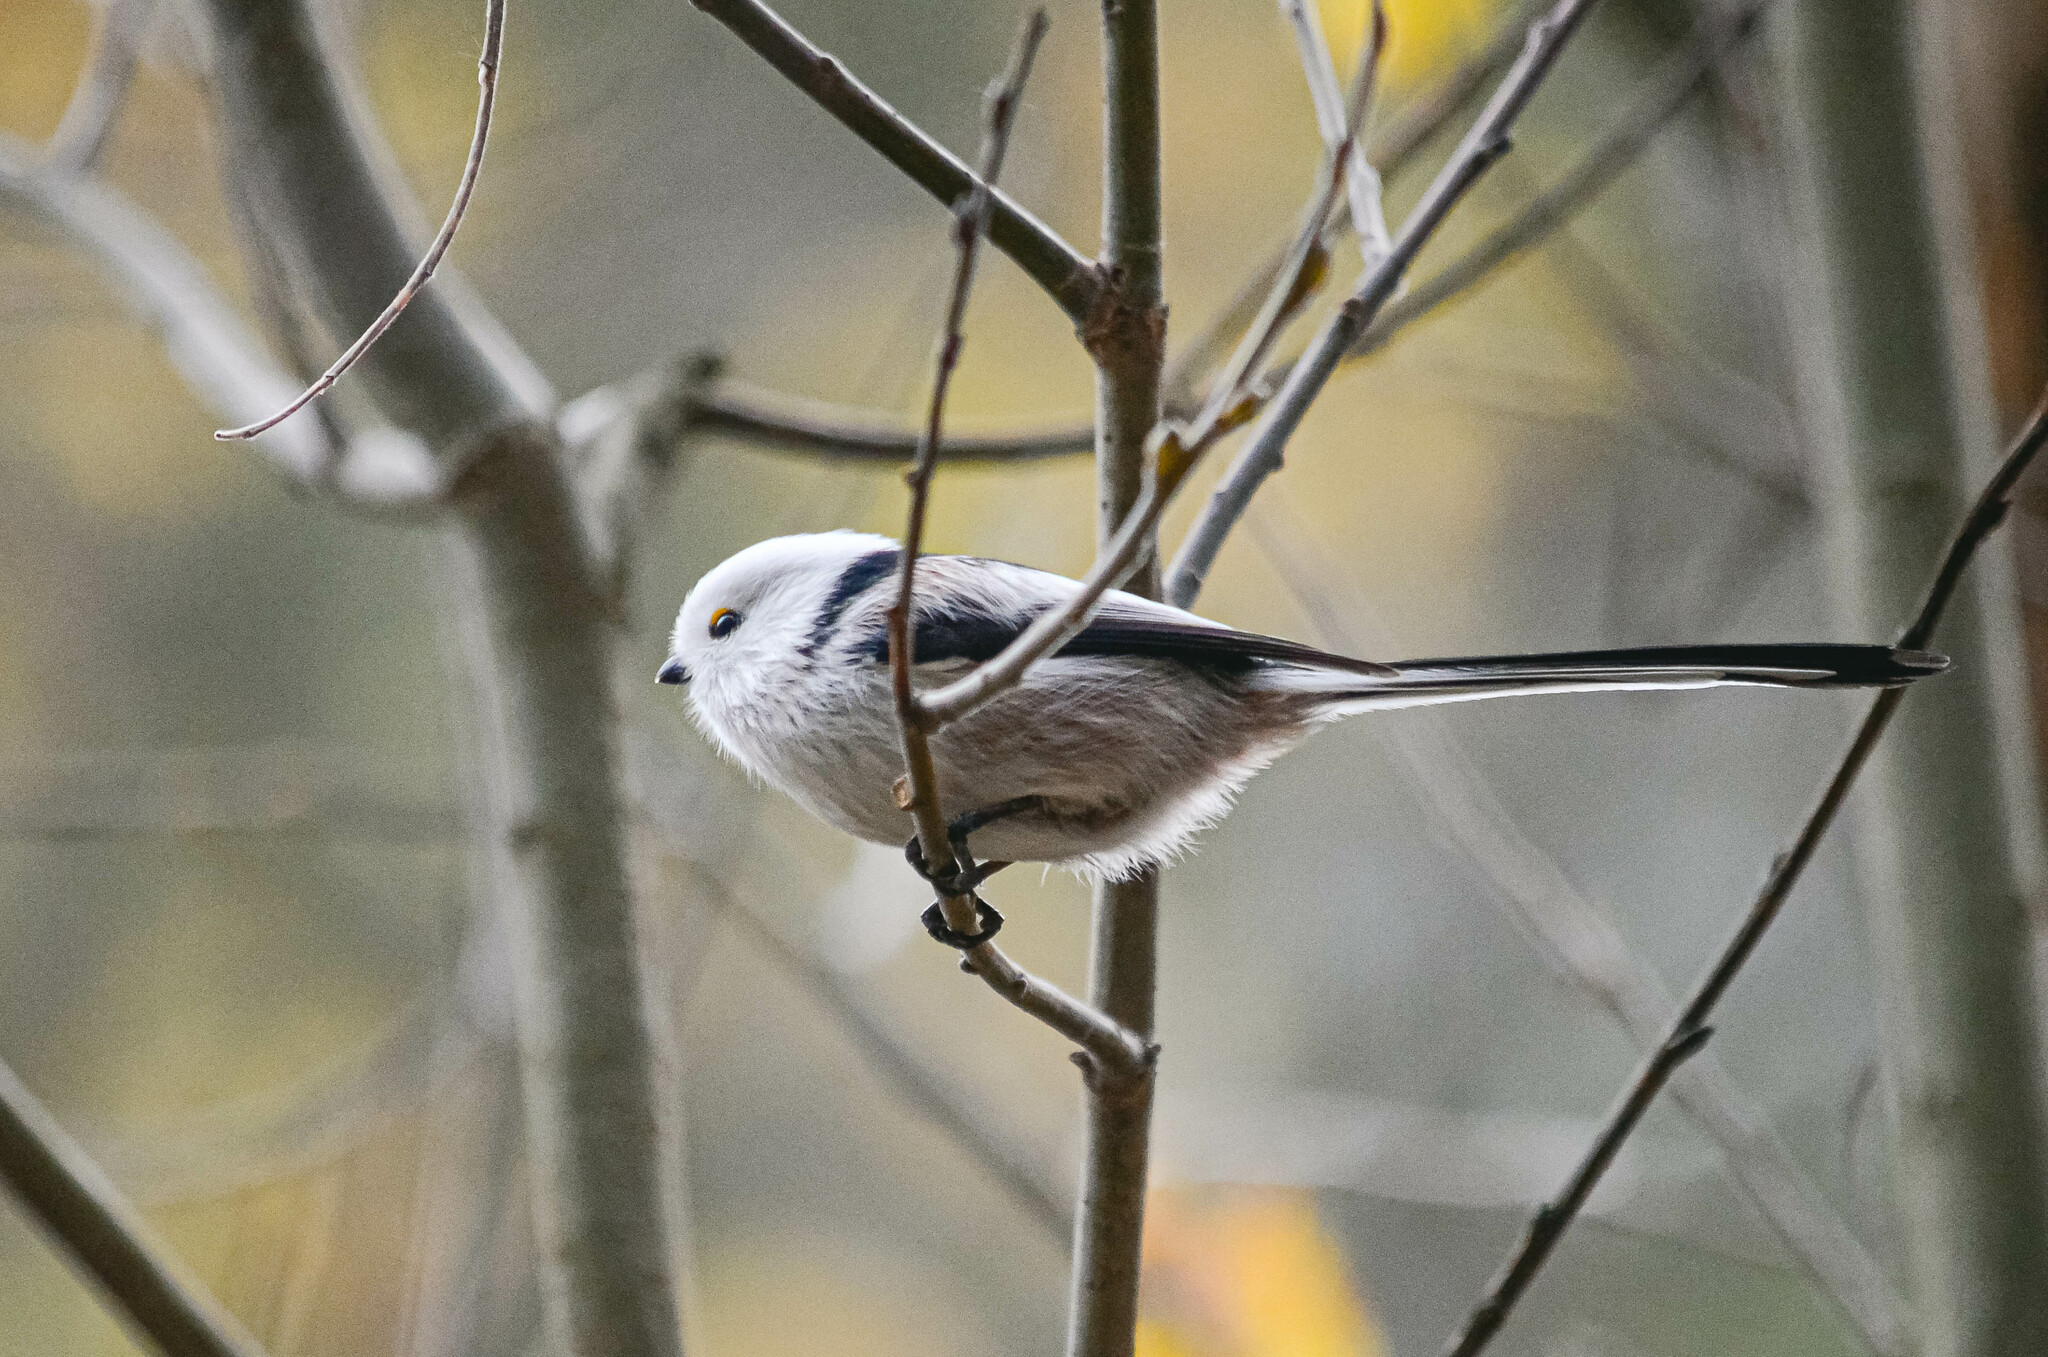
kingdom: Animalia
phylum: Chordata
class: Aves
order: Passeriformes
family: Aegithalidae
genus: Aegithalos
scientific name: Aegithalos caudatus
